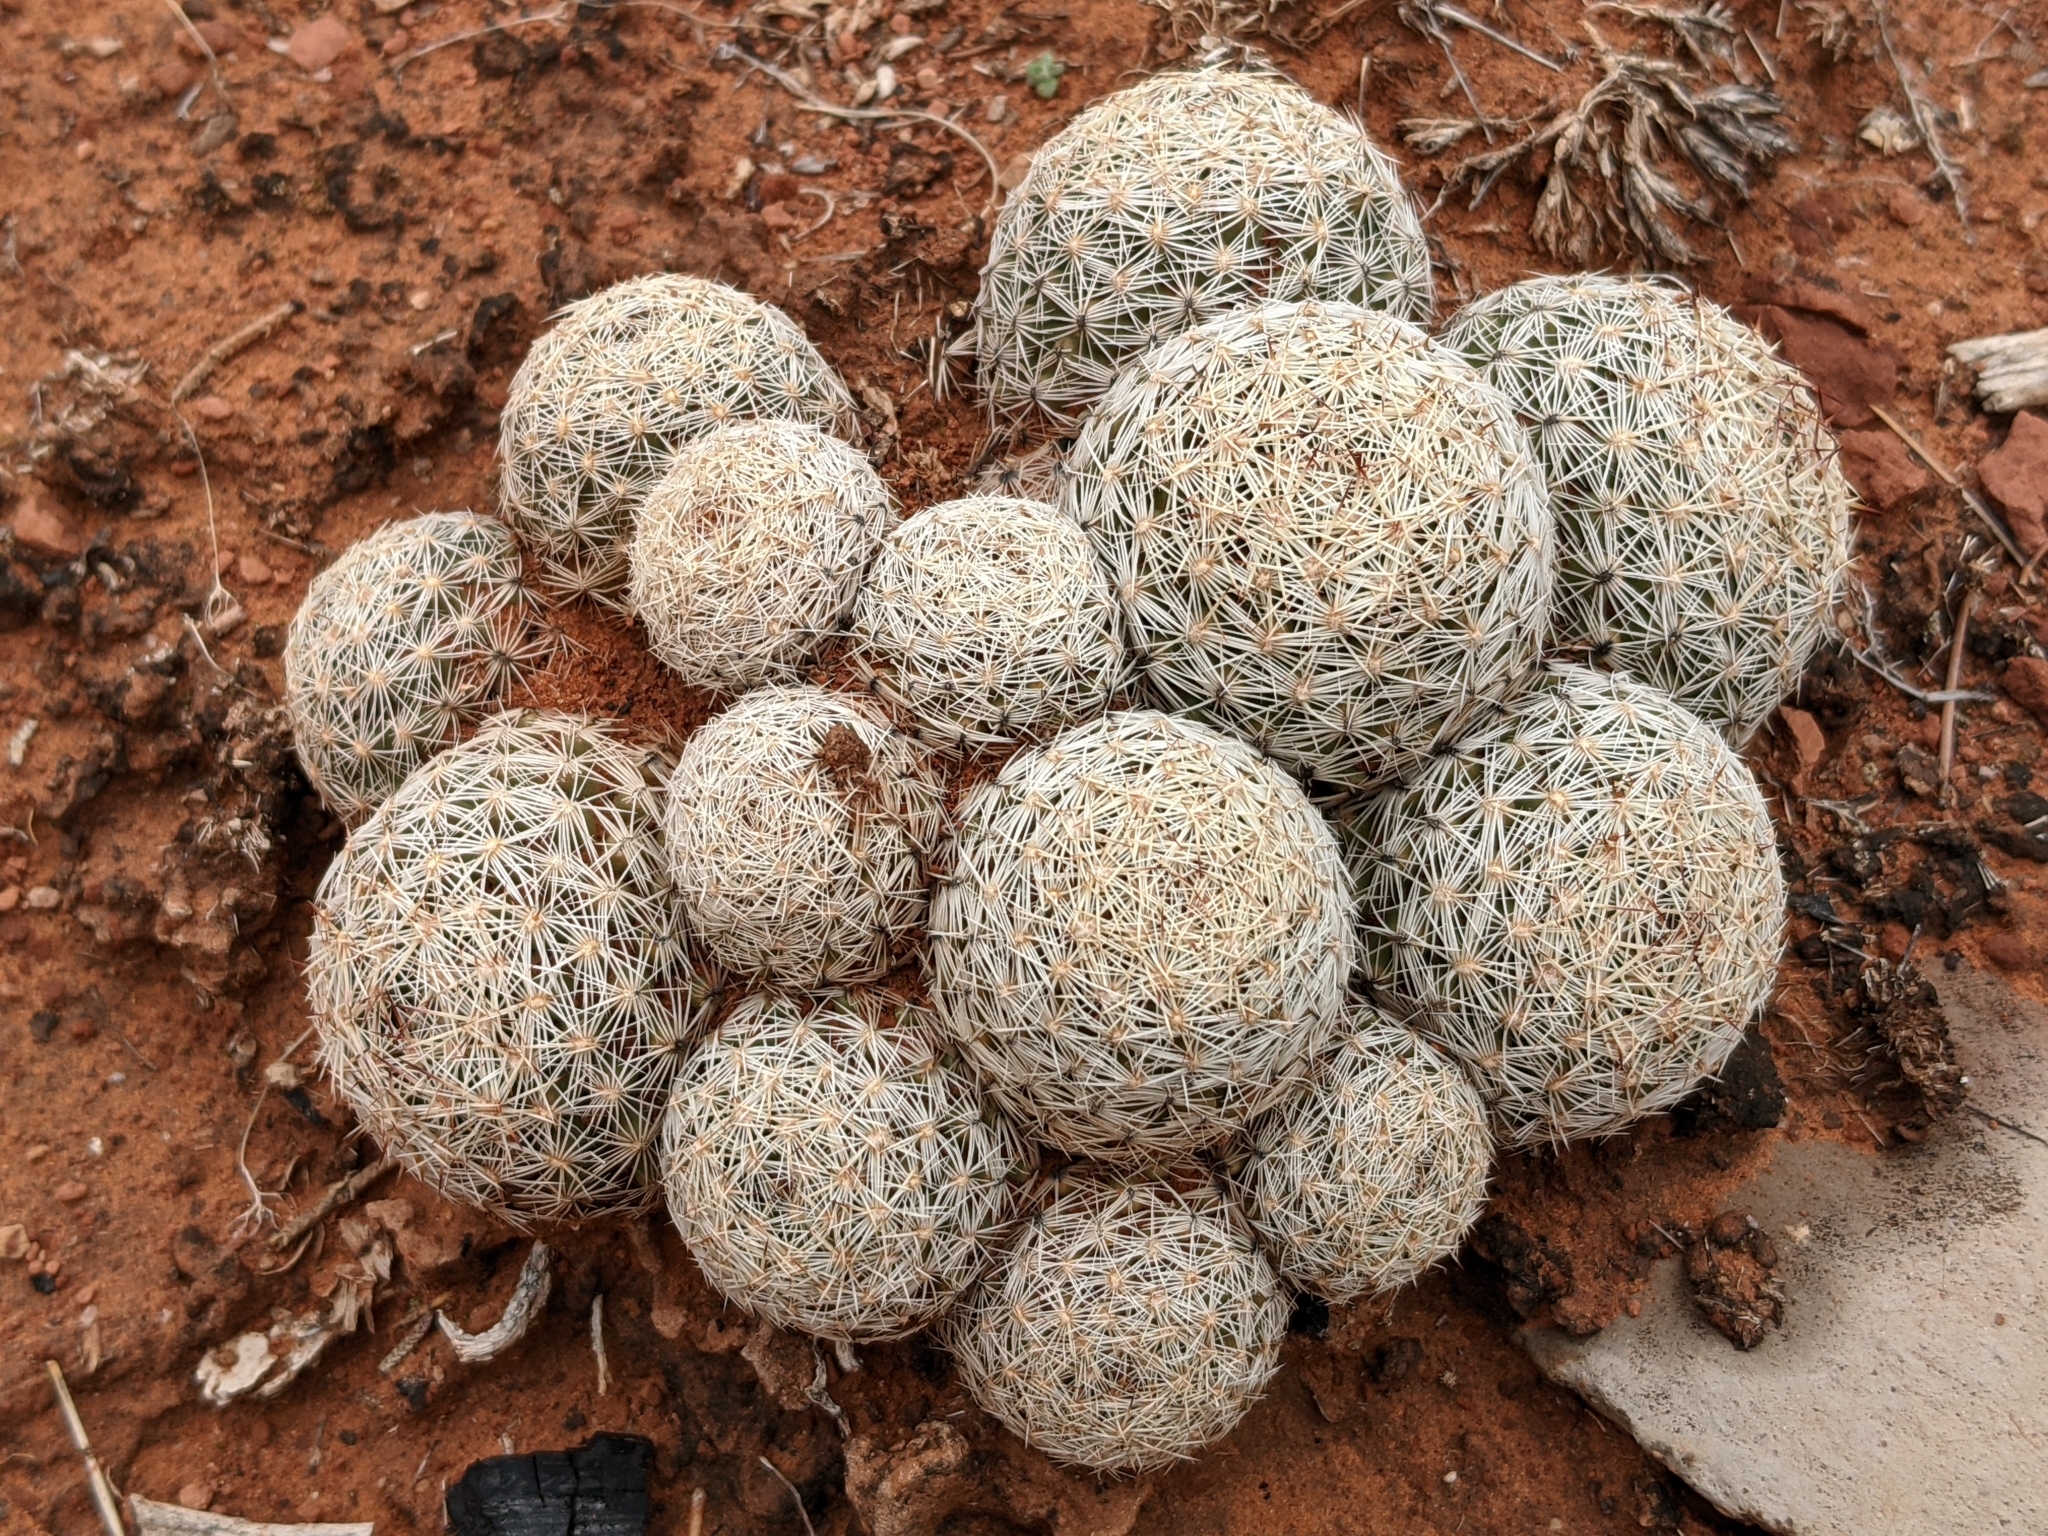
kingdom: Plantae
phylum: Tracheophyta
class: Magnoliopsida
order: Caryophyllales
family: Cactaceae
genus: Pelecyphora
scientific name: Pelecyphora vivipara
